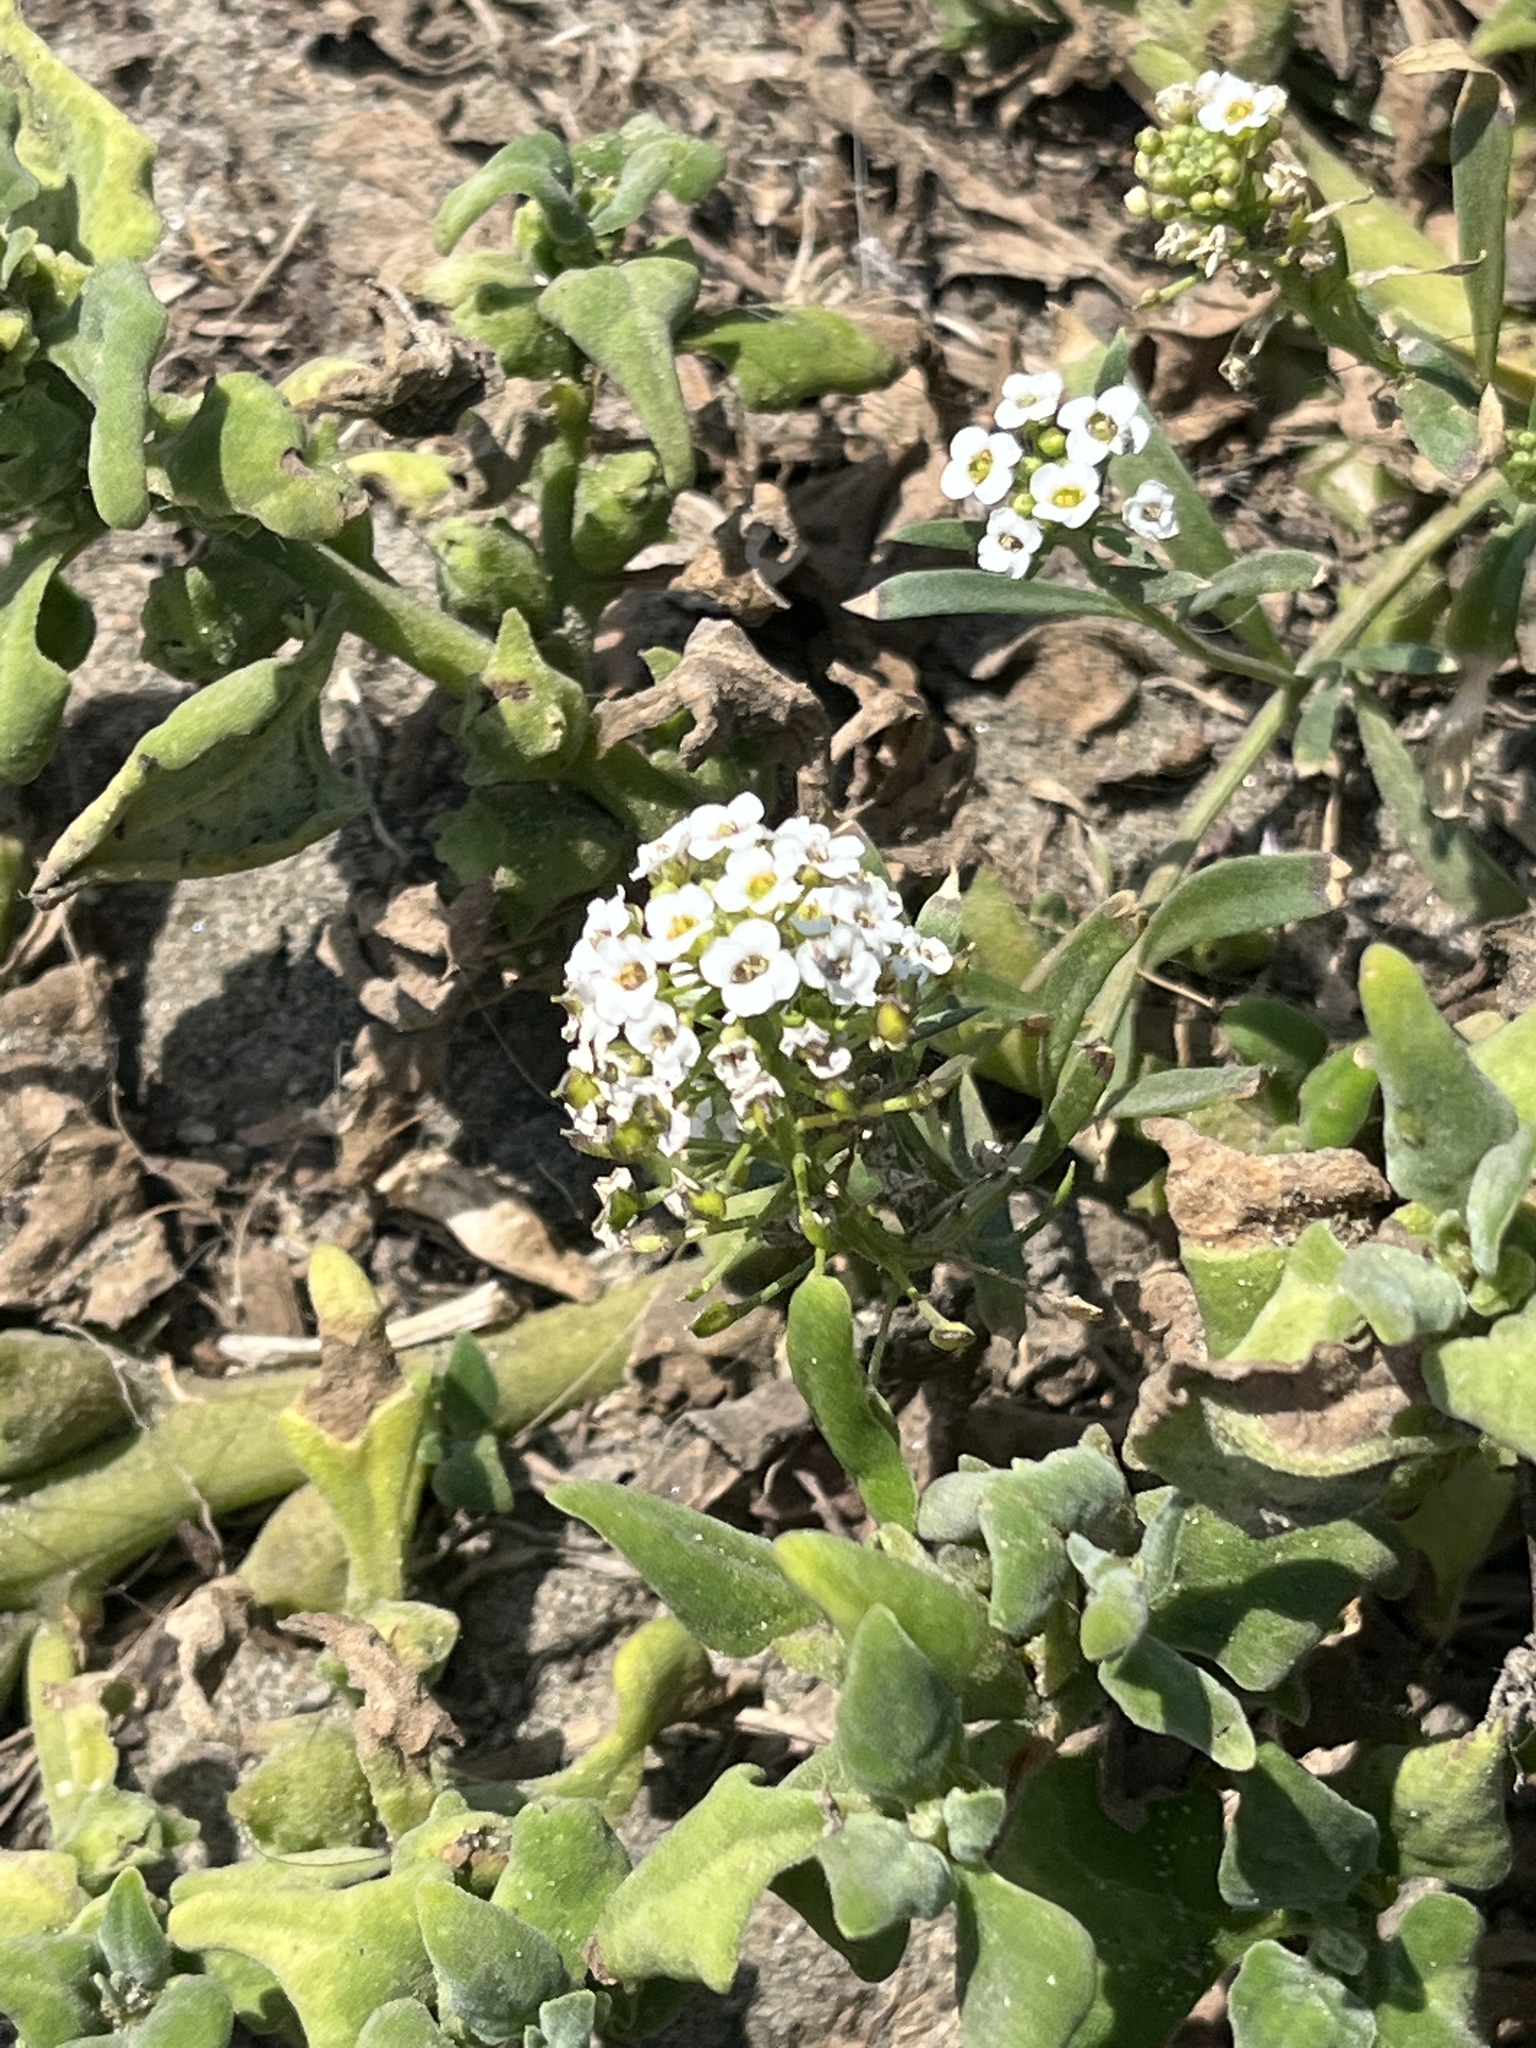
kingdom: Plantae
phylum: Tracheophyta
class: Magnoliopsida
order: Brassicales
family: Brassicaceae
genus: Lobularia
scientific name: Lobularia maritima
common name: Sweet alison
